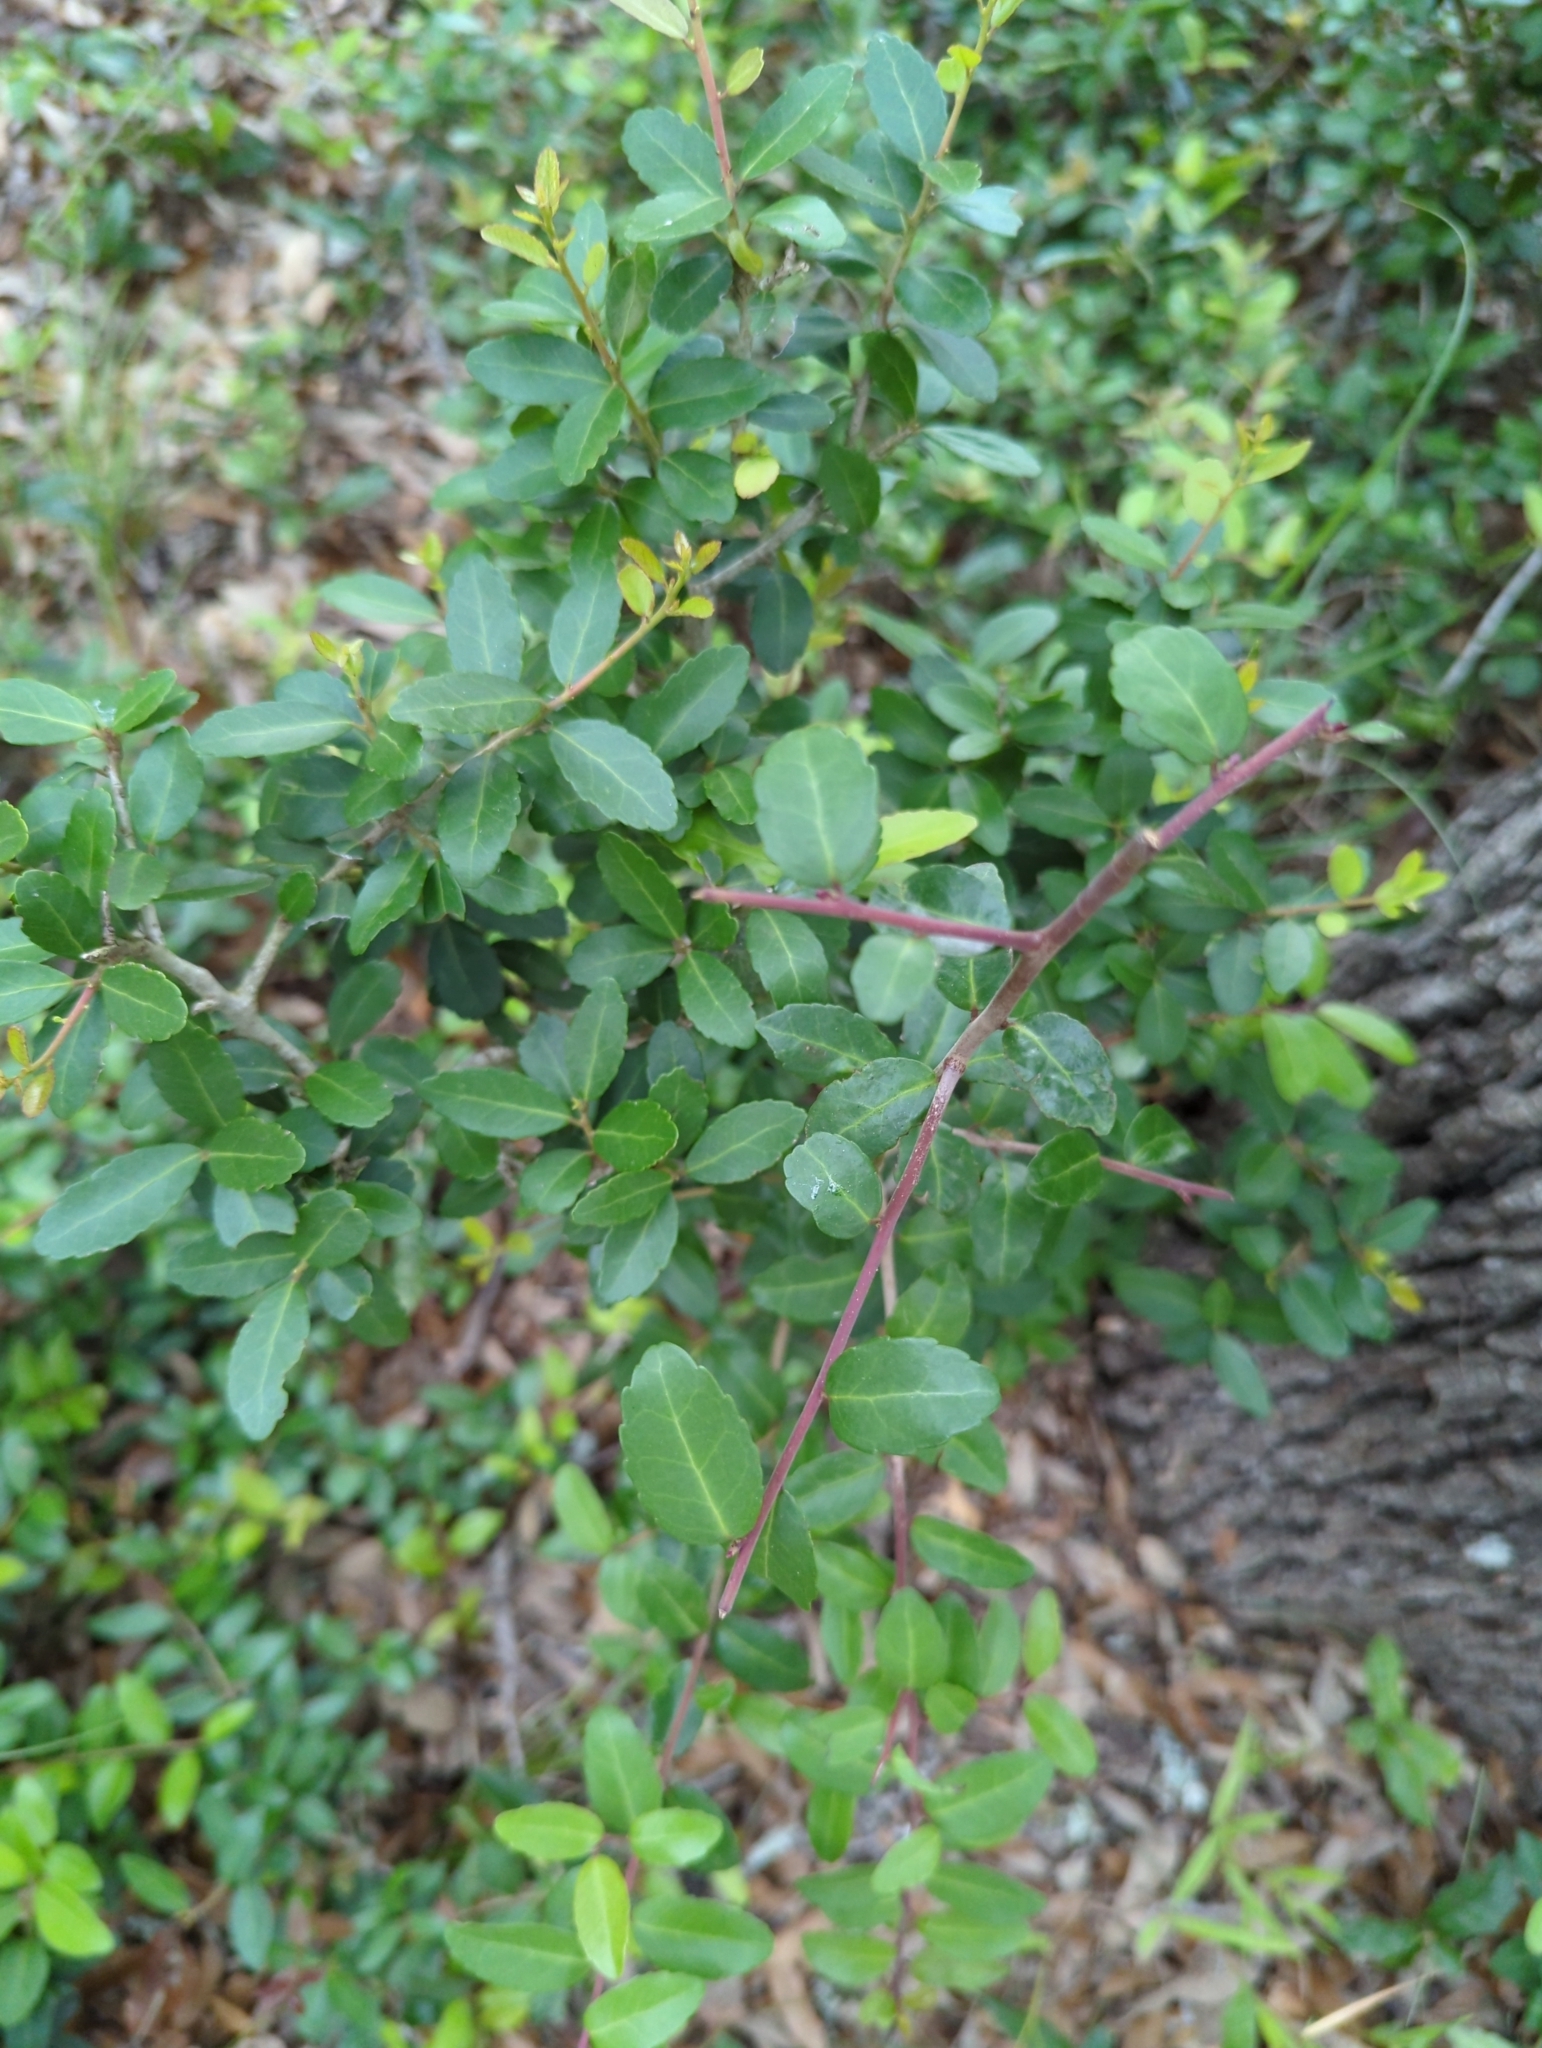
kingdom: Plantae
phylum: Tracheophyta
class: Magnoliopsida
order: Aquifoliales
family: Aquifoliaceae
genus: Ilex
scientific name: Ilex vomitoria
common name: Yaupon holly
